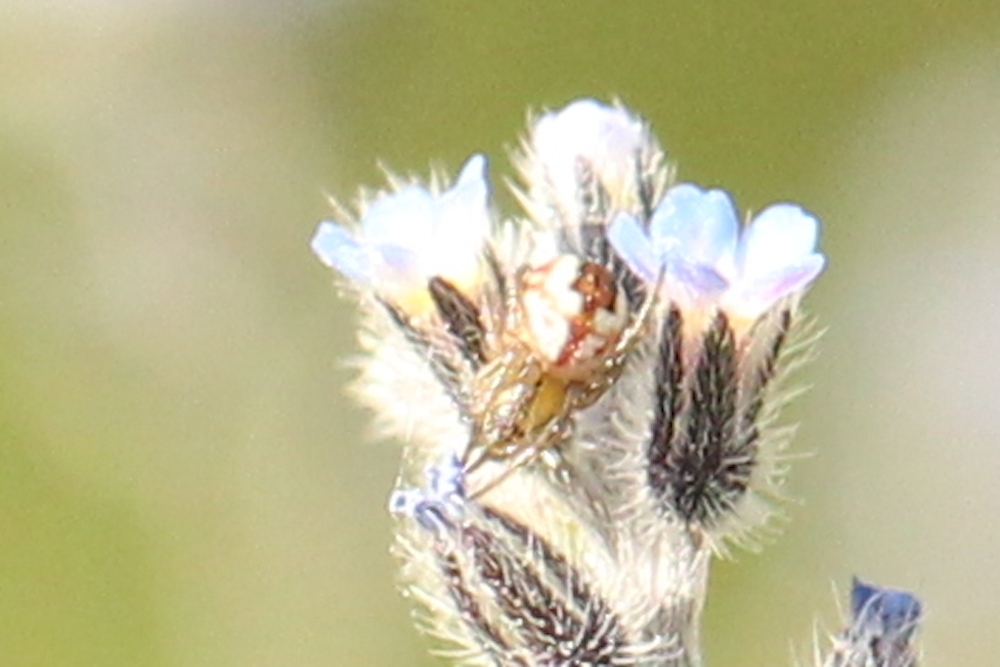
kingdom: Animalia
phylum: Arthropoda
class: Arachnida
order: Araneae
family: Araneidae
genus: Mangora
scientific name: Mangora acalypha
